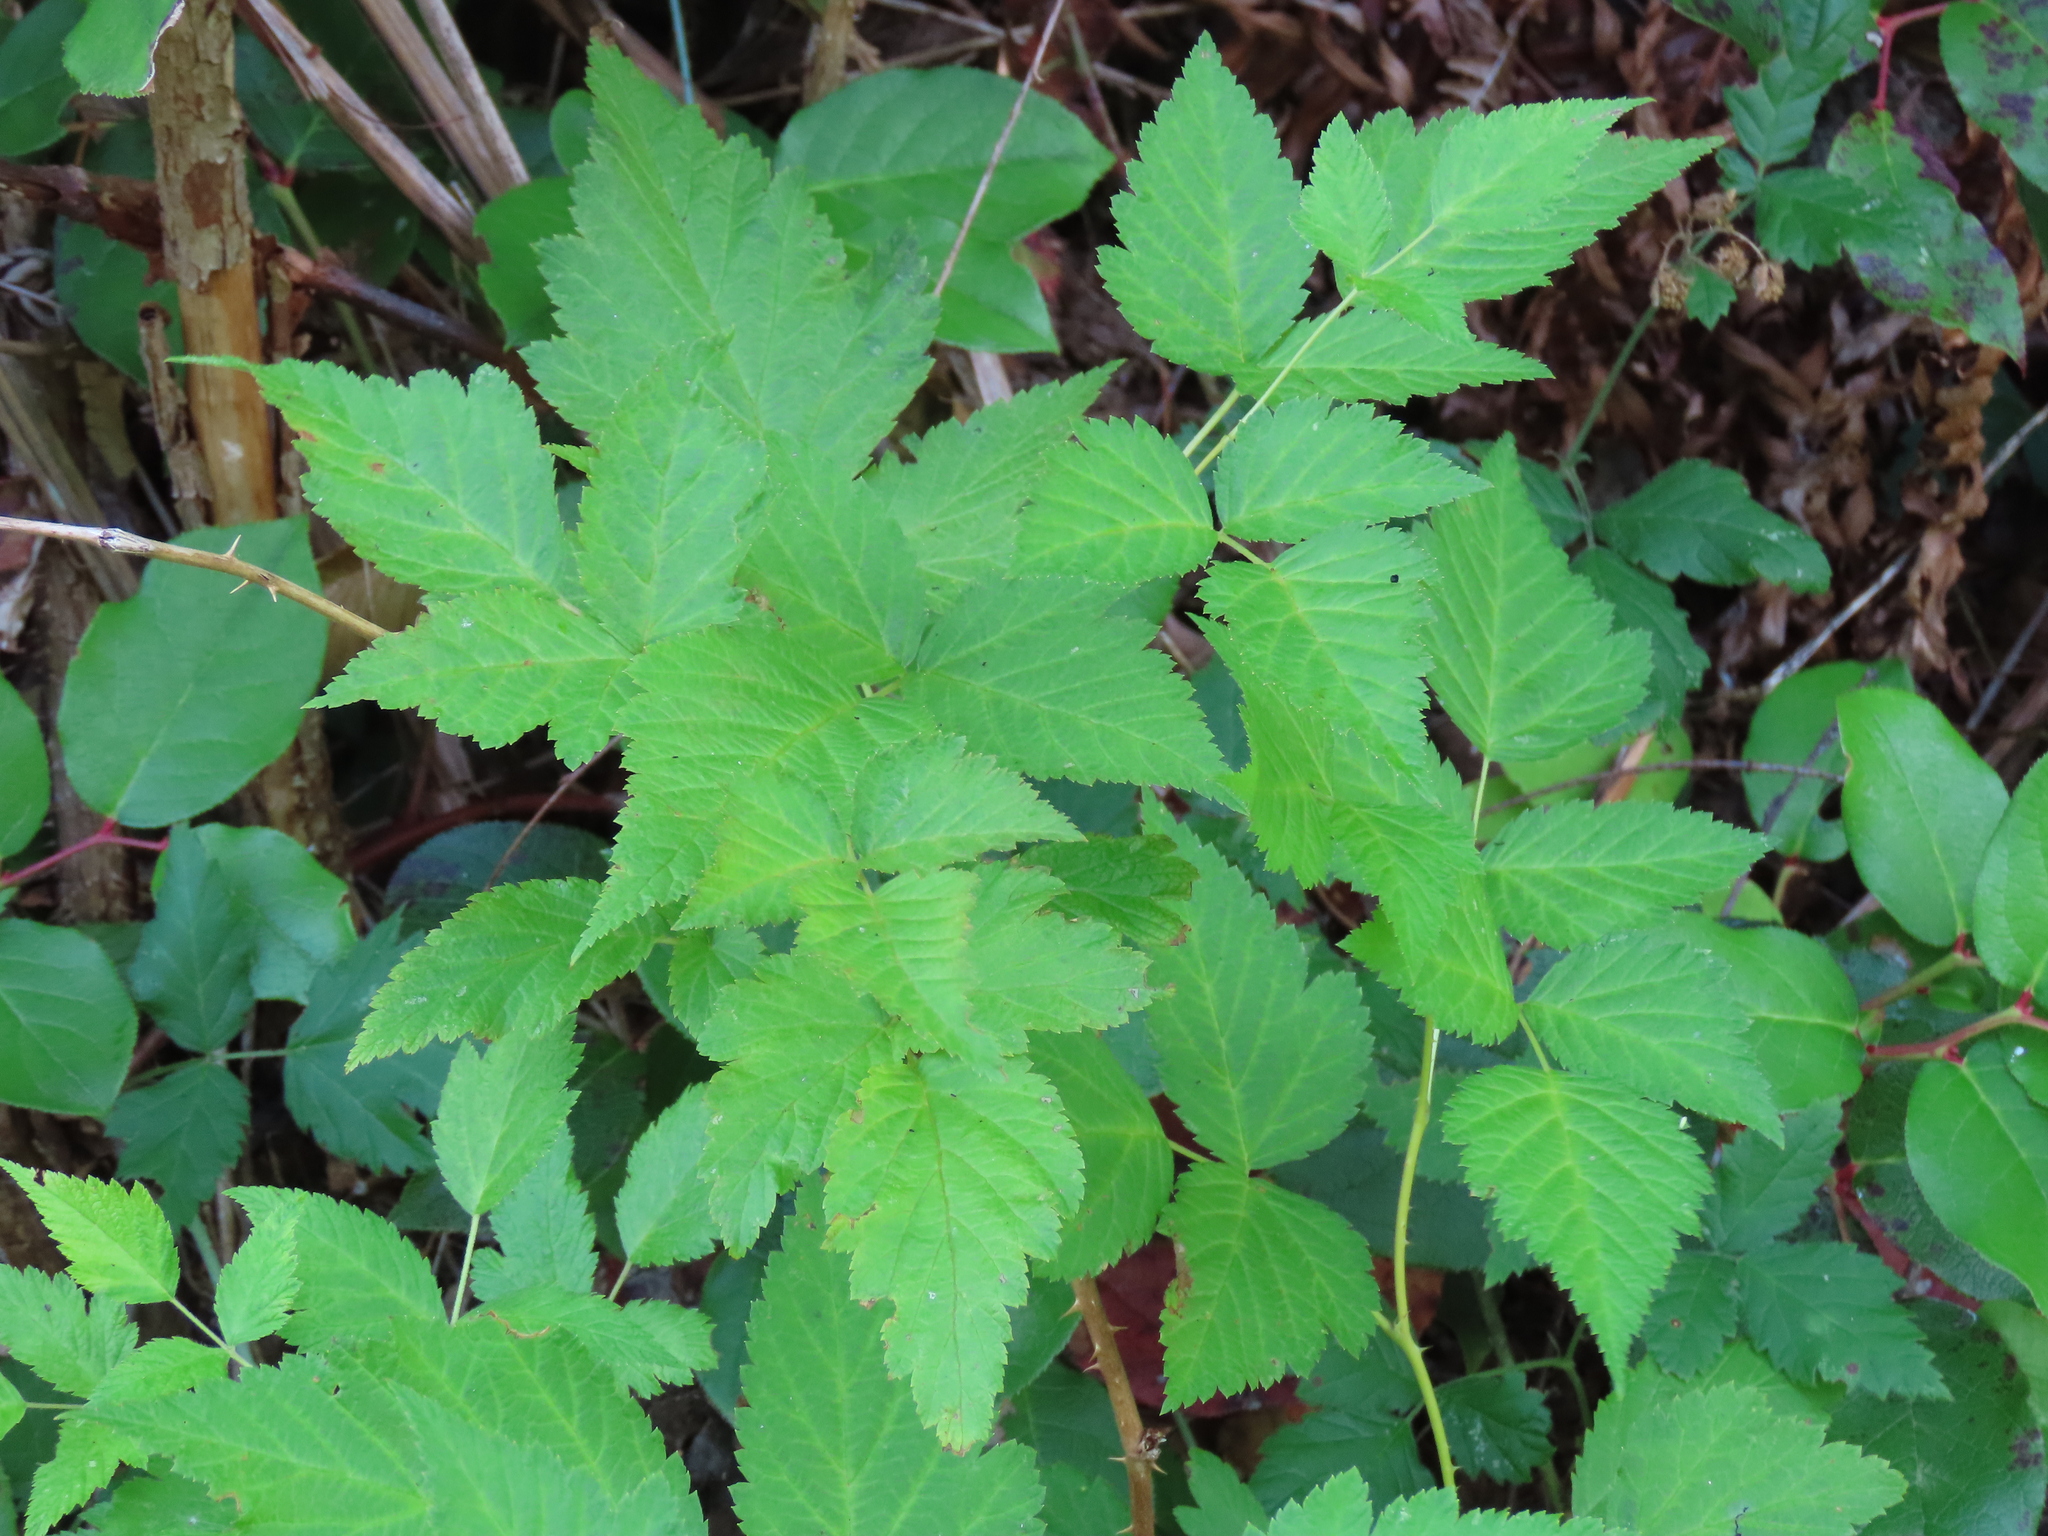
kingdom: Plantae
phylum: Tracheophyta
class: Magnoliopsida
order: Rosales
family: Rosaceae
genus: Rubus
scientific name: Rubus spectabilis
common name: Salmonberry
